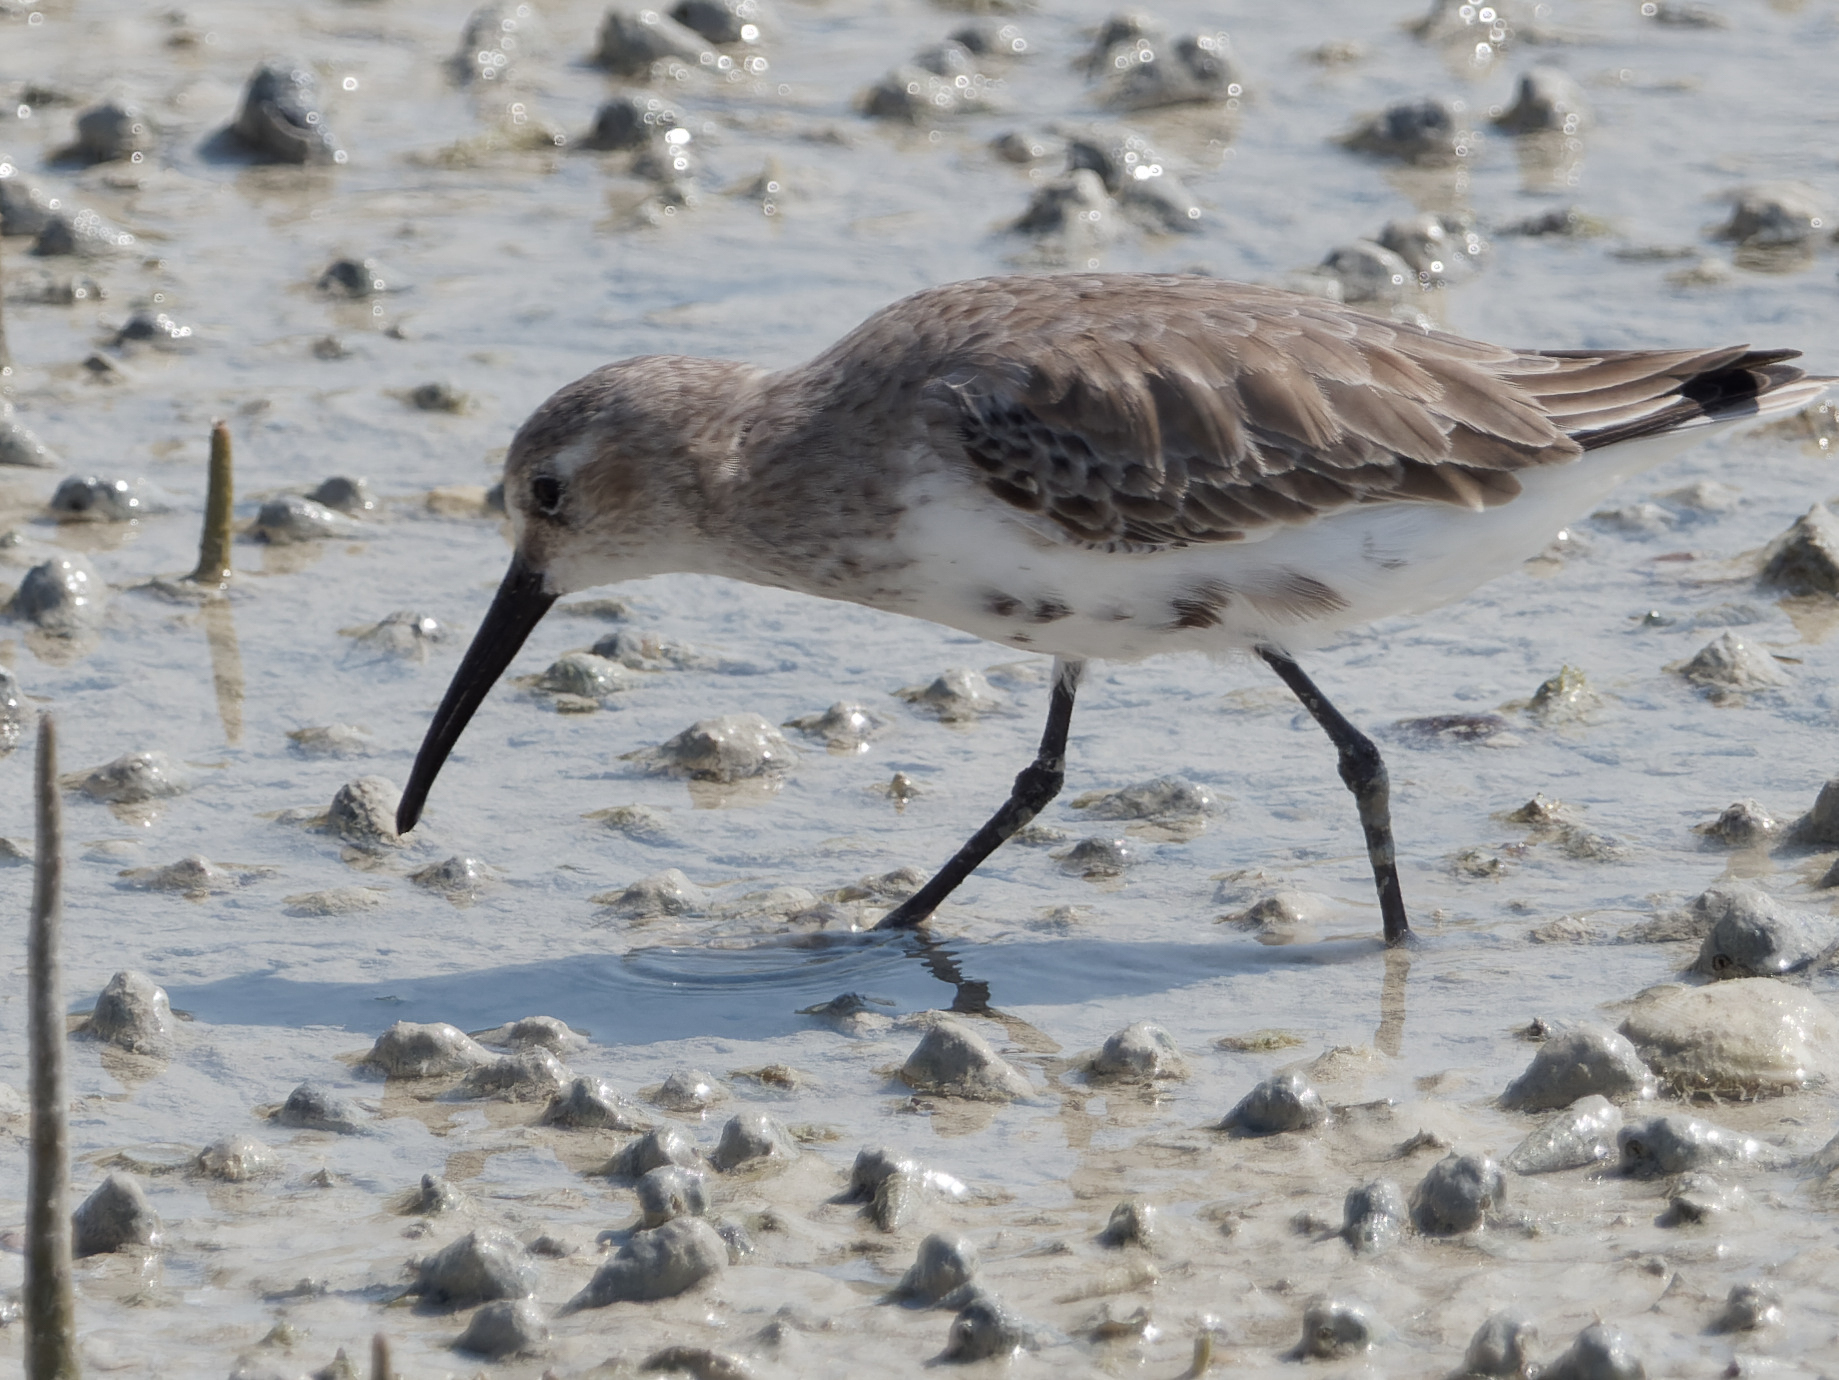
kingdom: Animalia
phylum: Chordata
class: Aves
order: Charadriiformes
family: Scolopacidae
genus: Calidris
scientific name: Calidris alpina
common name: Dunlin
